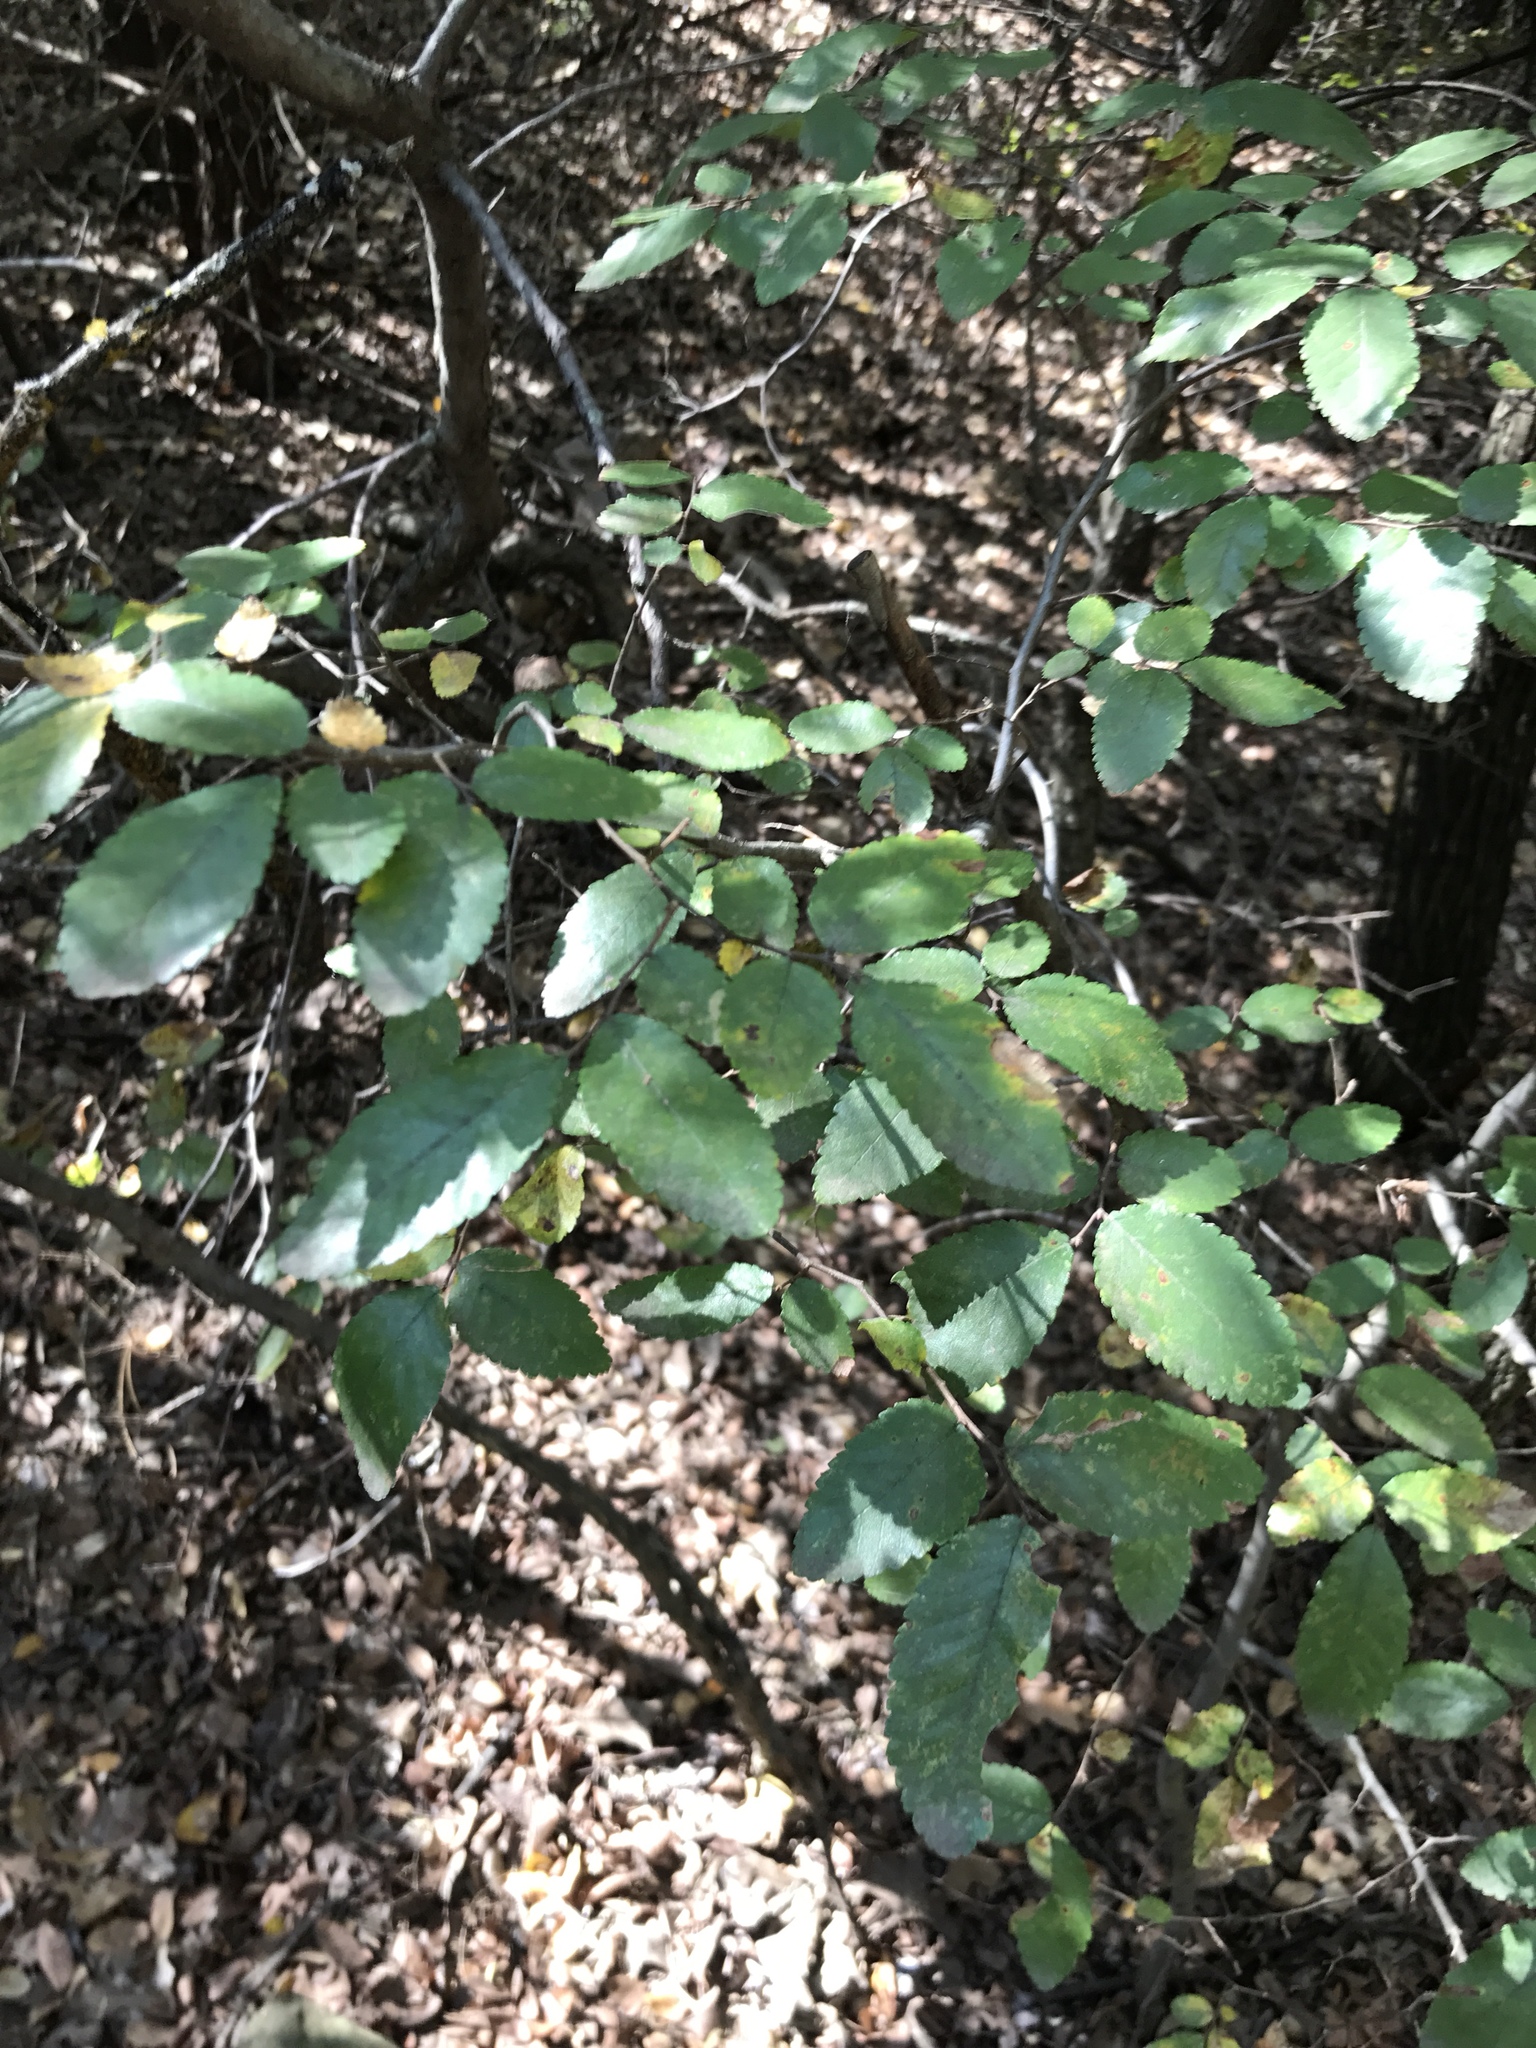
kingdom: Plantae
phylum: Tracheophyta
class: Magnoliopsida
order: Rosales
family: Ulmaceae
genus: Ulmus
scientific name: Ulmus crassifolia
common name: Basket elm
